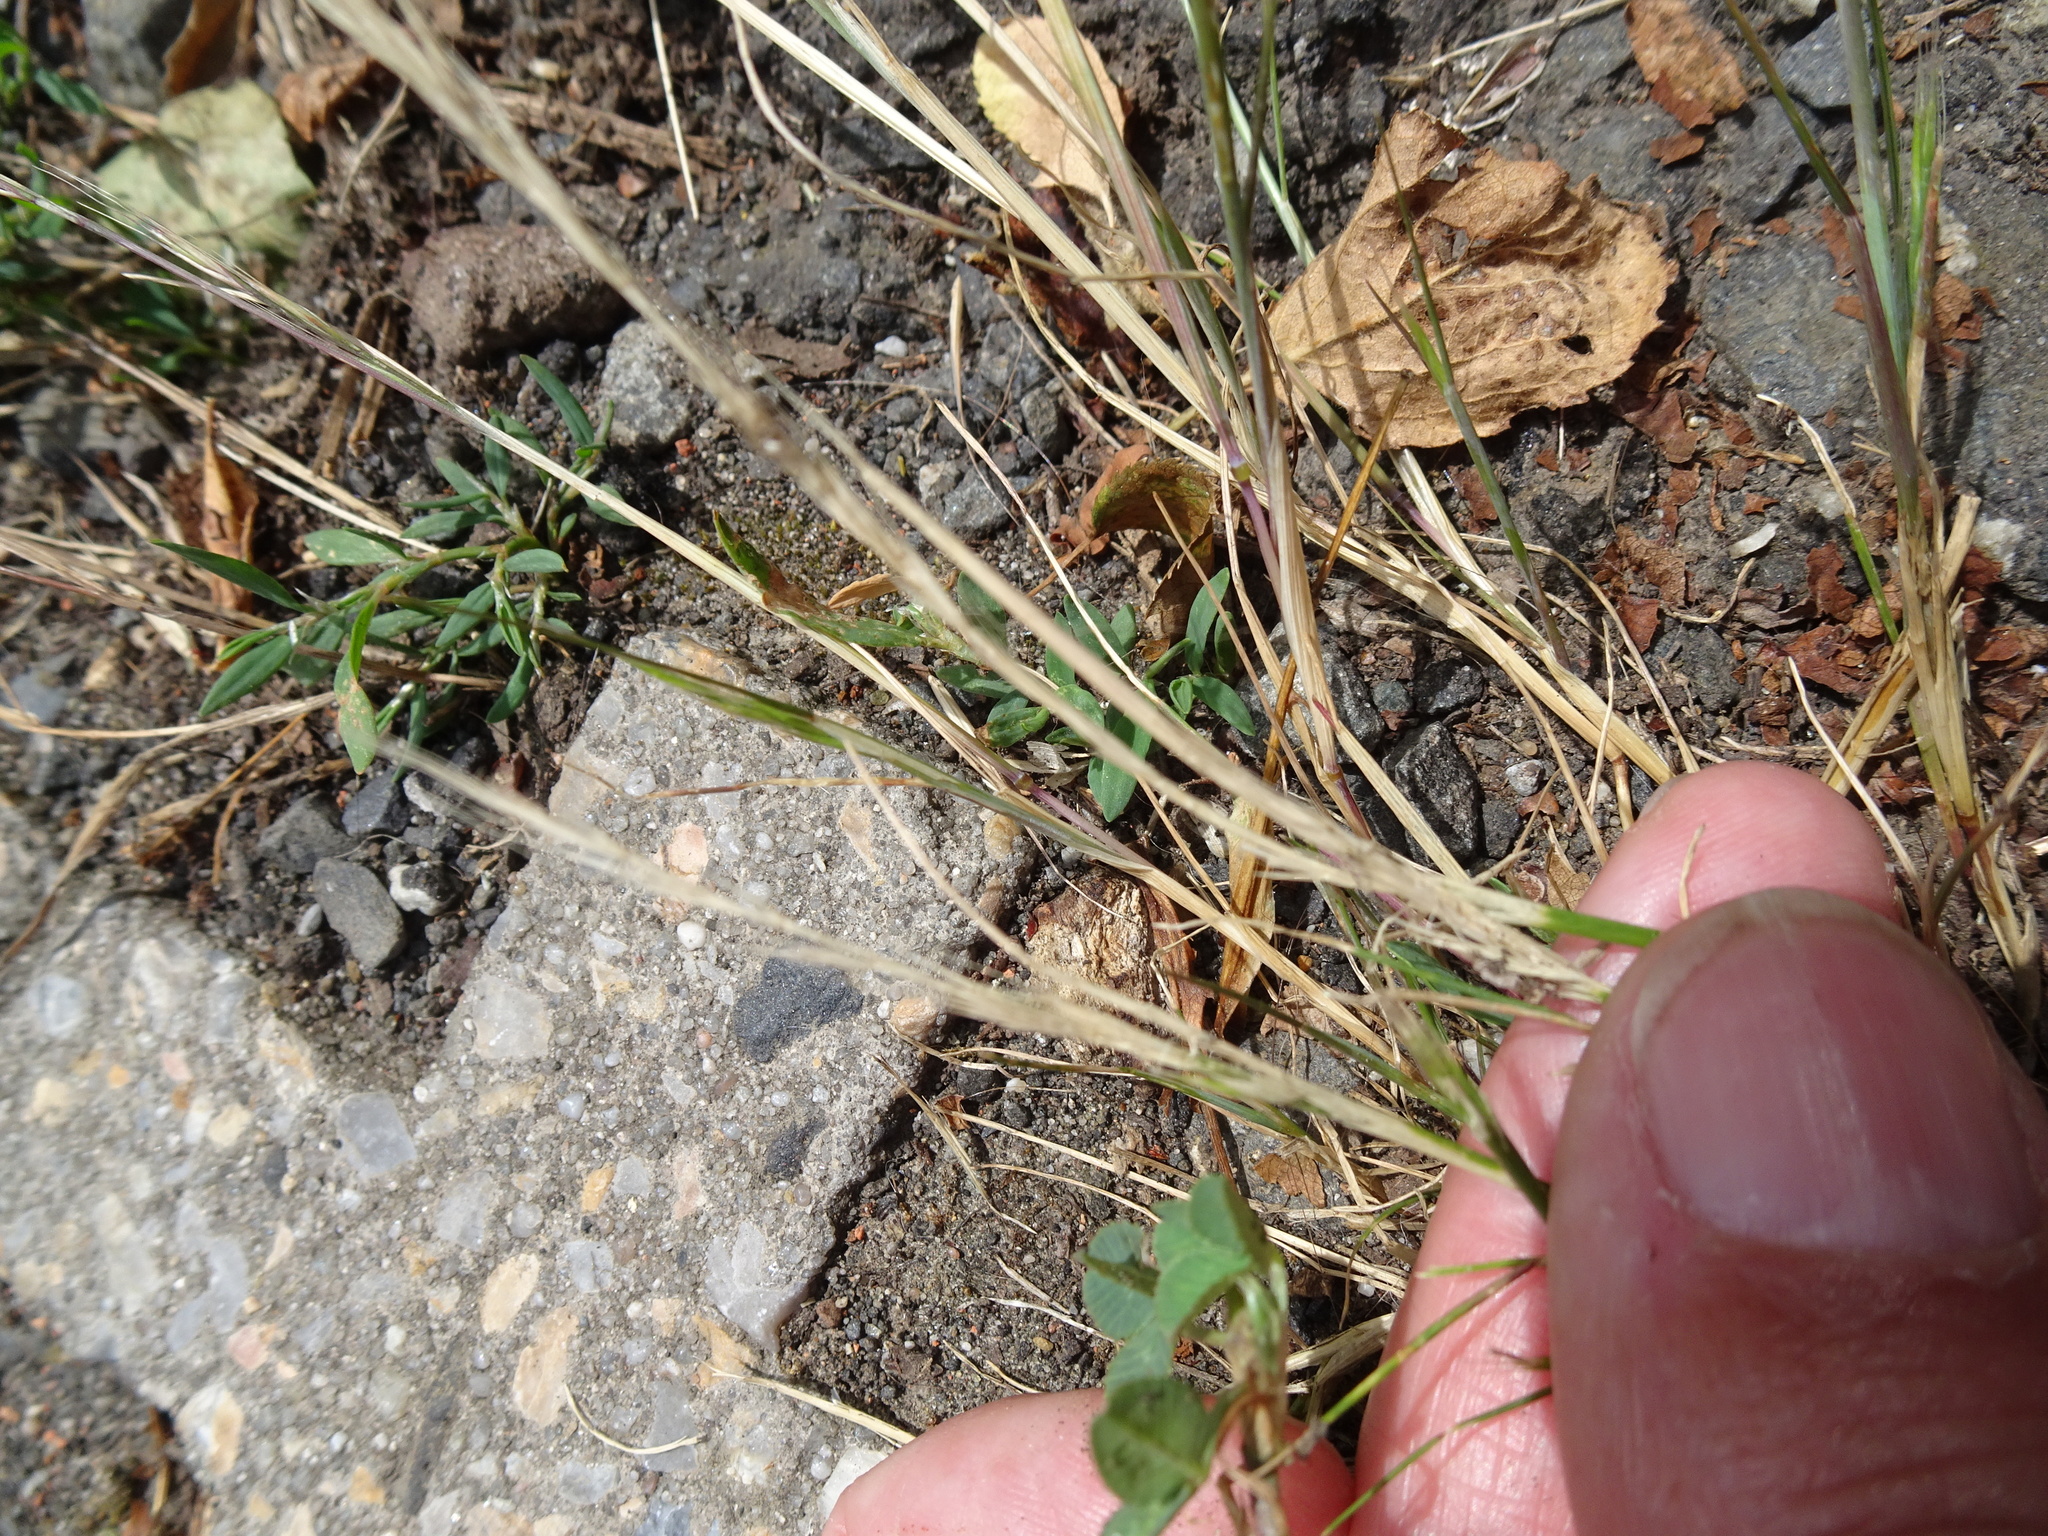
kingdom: Plantae
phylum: Tracheophyta
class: Liliopsida
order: Poales
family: Poaceae
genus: Festuca
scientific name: Festuca myuros
